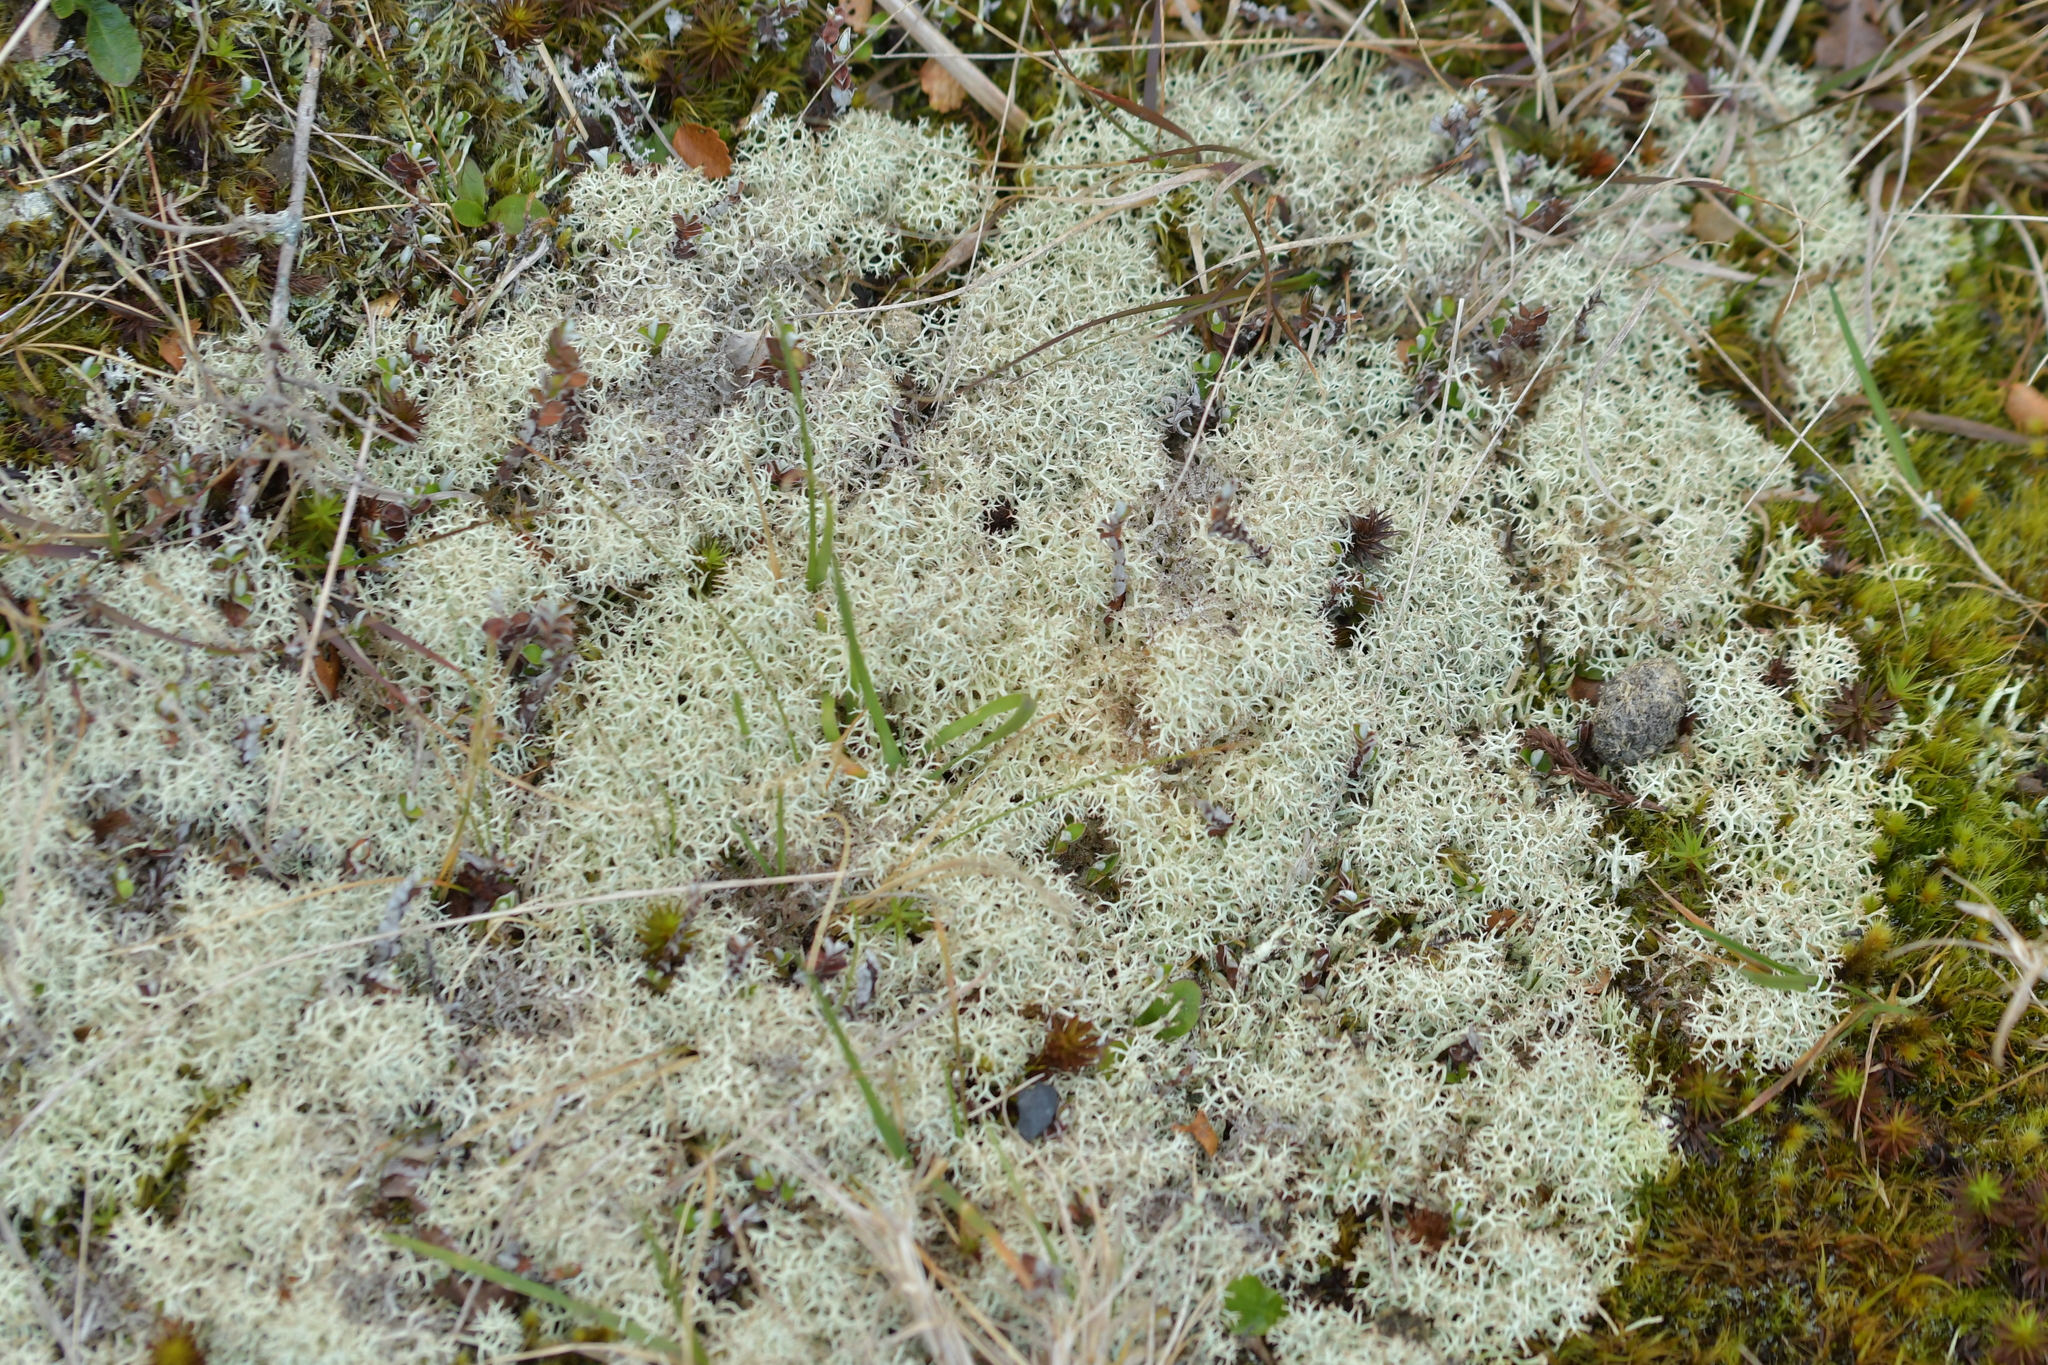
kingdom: Fungi
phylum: Ascomycota
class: Lecanoromycetes
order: Lecanorales
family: Cladoniaceae
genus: Cladonia
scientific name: Cladonia confusa
